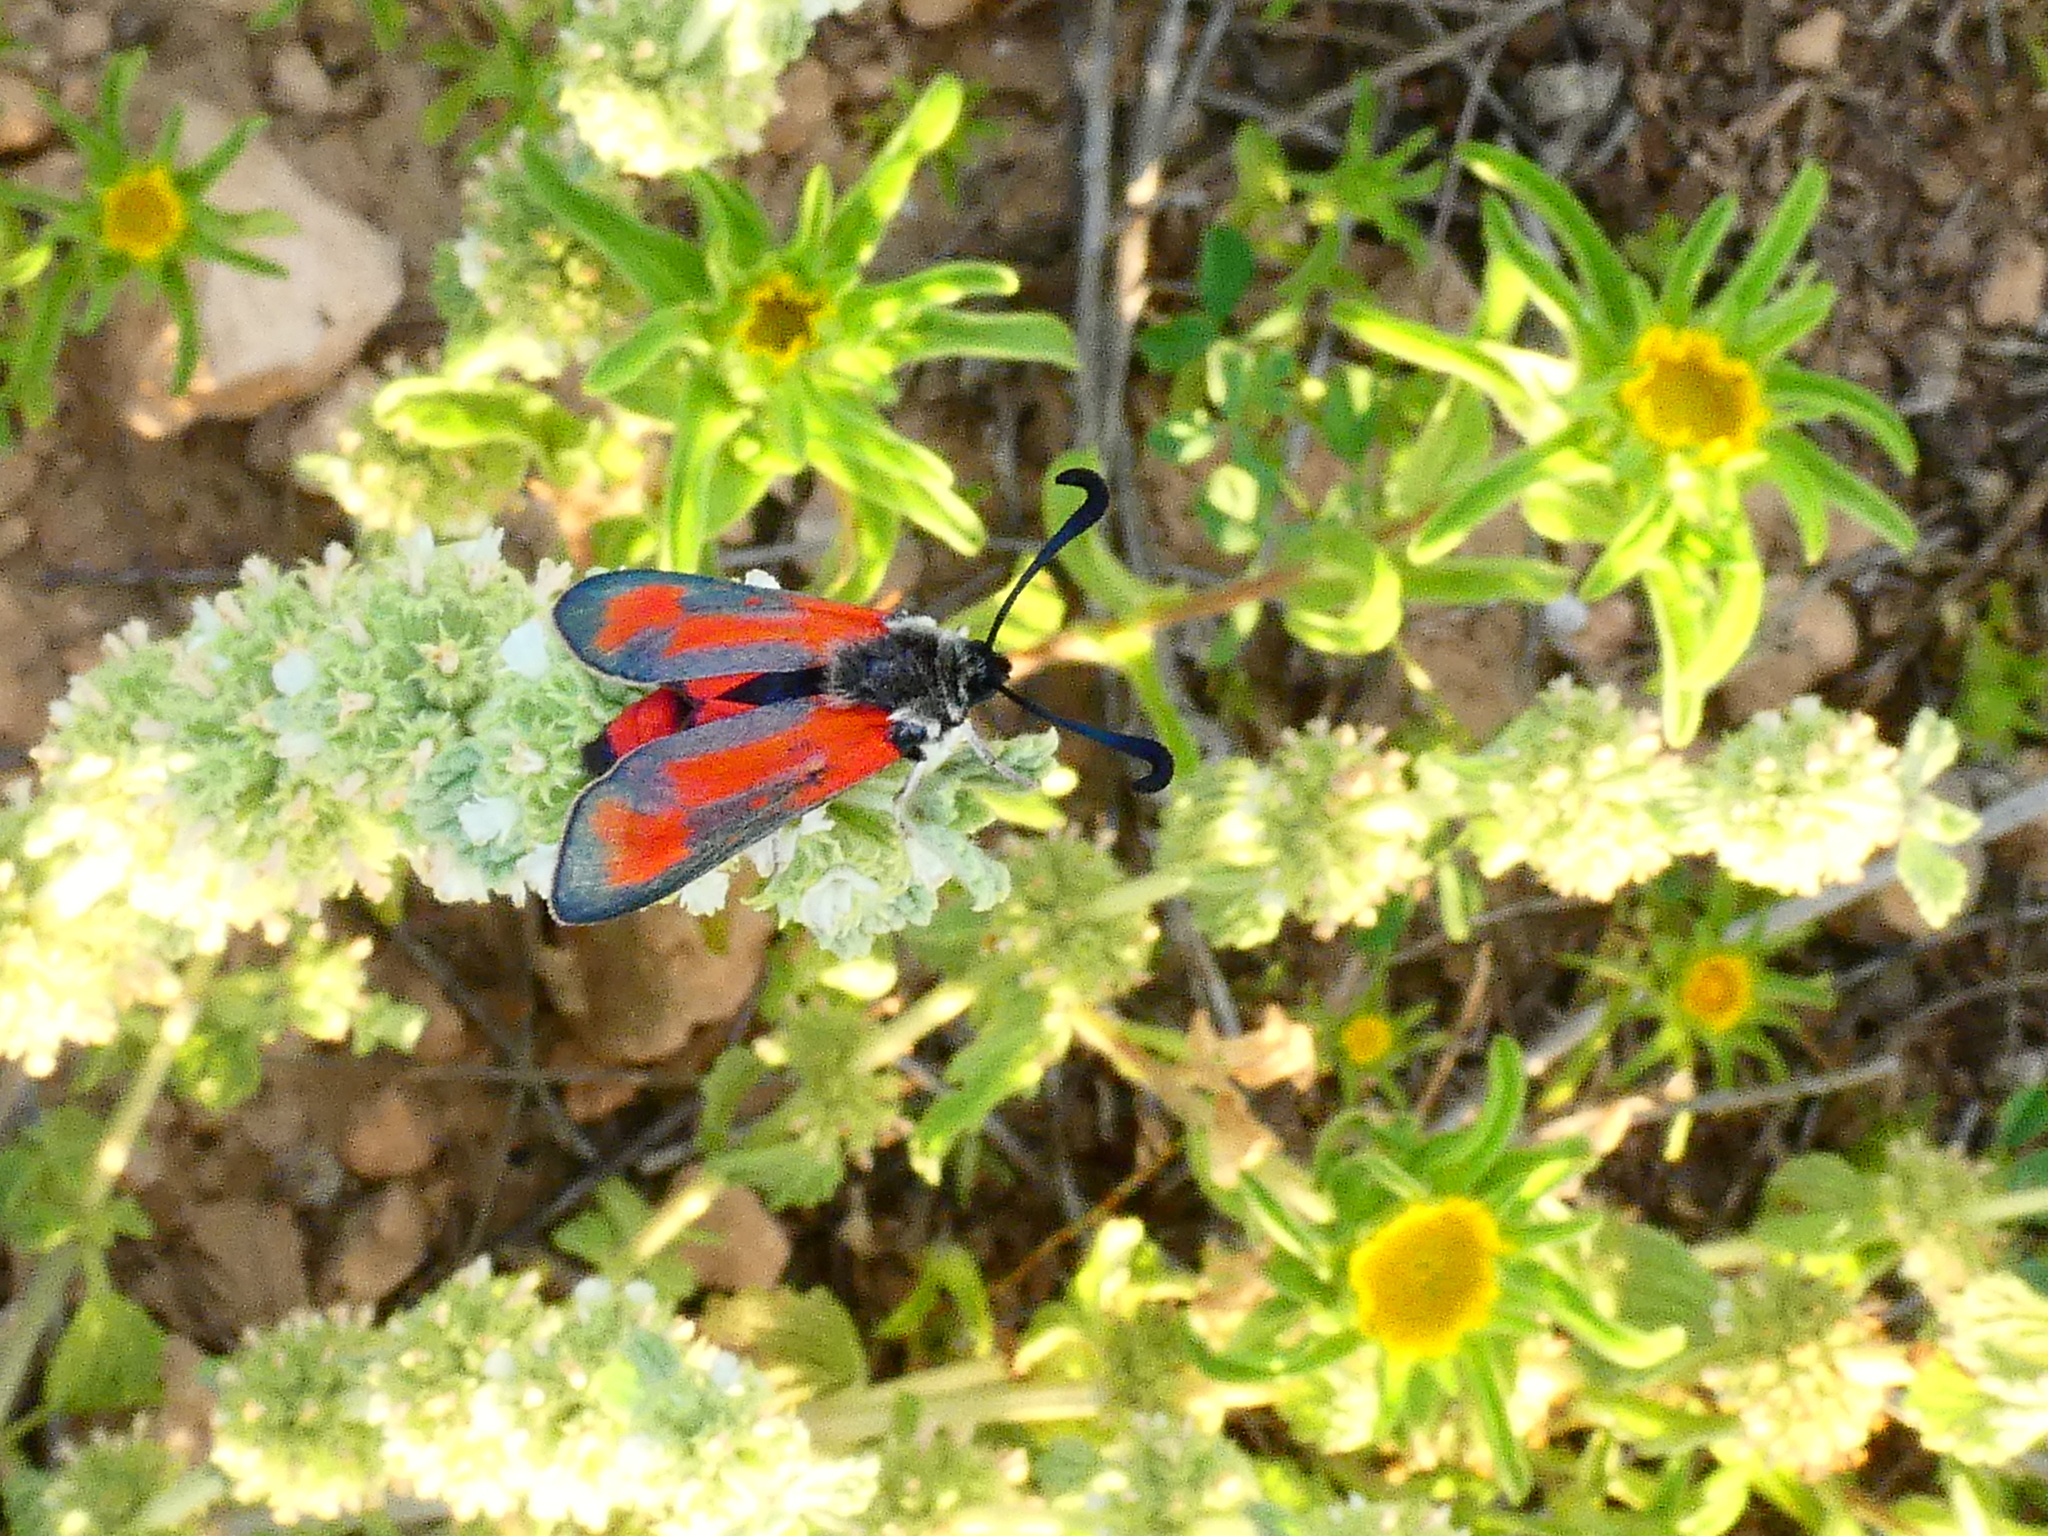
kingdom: Animalia
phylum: Arthropoda
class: Insecta
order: Lepidoptera
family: Zygaenidae
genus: Zygaena
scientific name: Zygaena sarpedon
